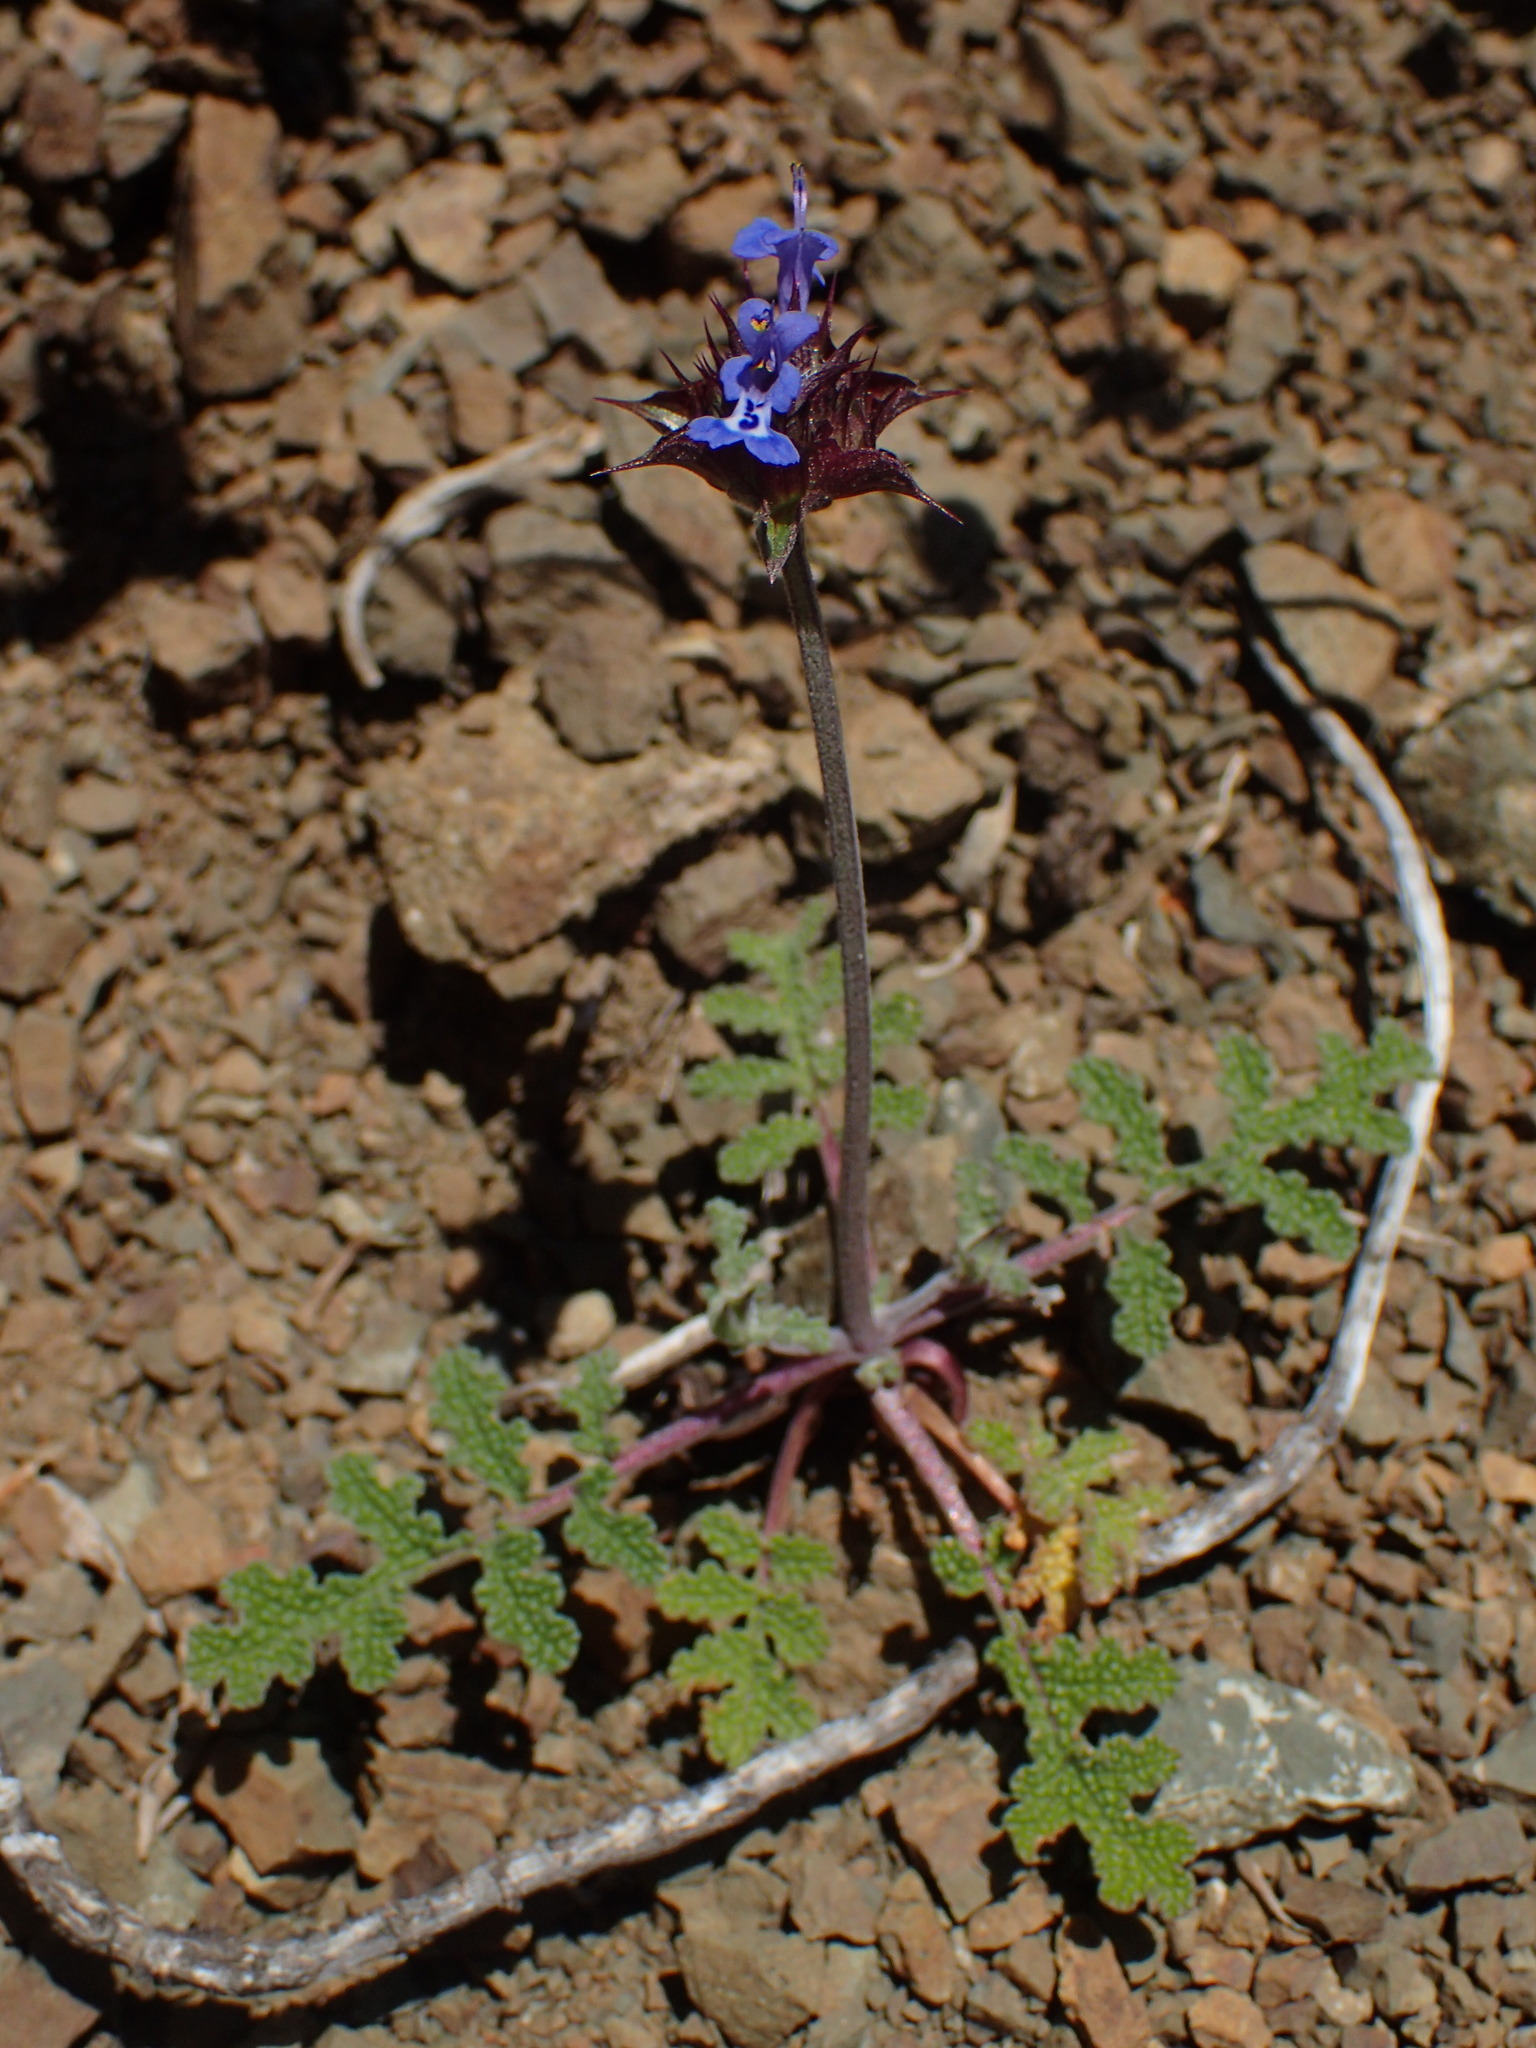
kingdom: Plantae
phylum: Tracheophyta
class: Magnoliopsida
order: Lamiales
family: Lamiaceae
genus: Salvia
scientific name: Salvia columbariae
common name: Chia
